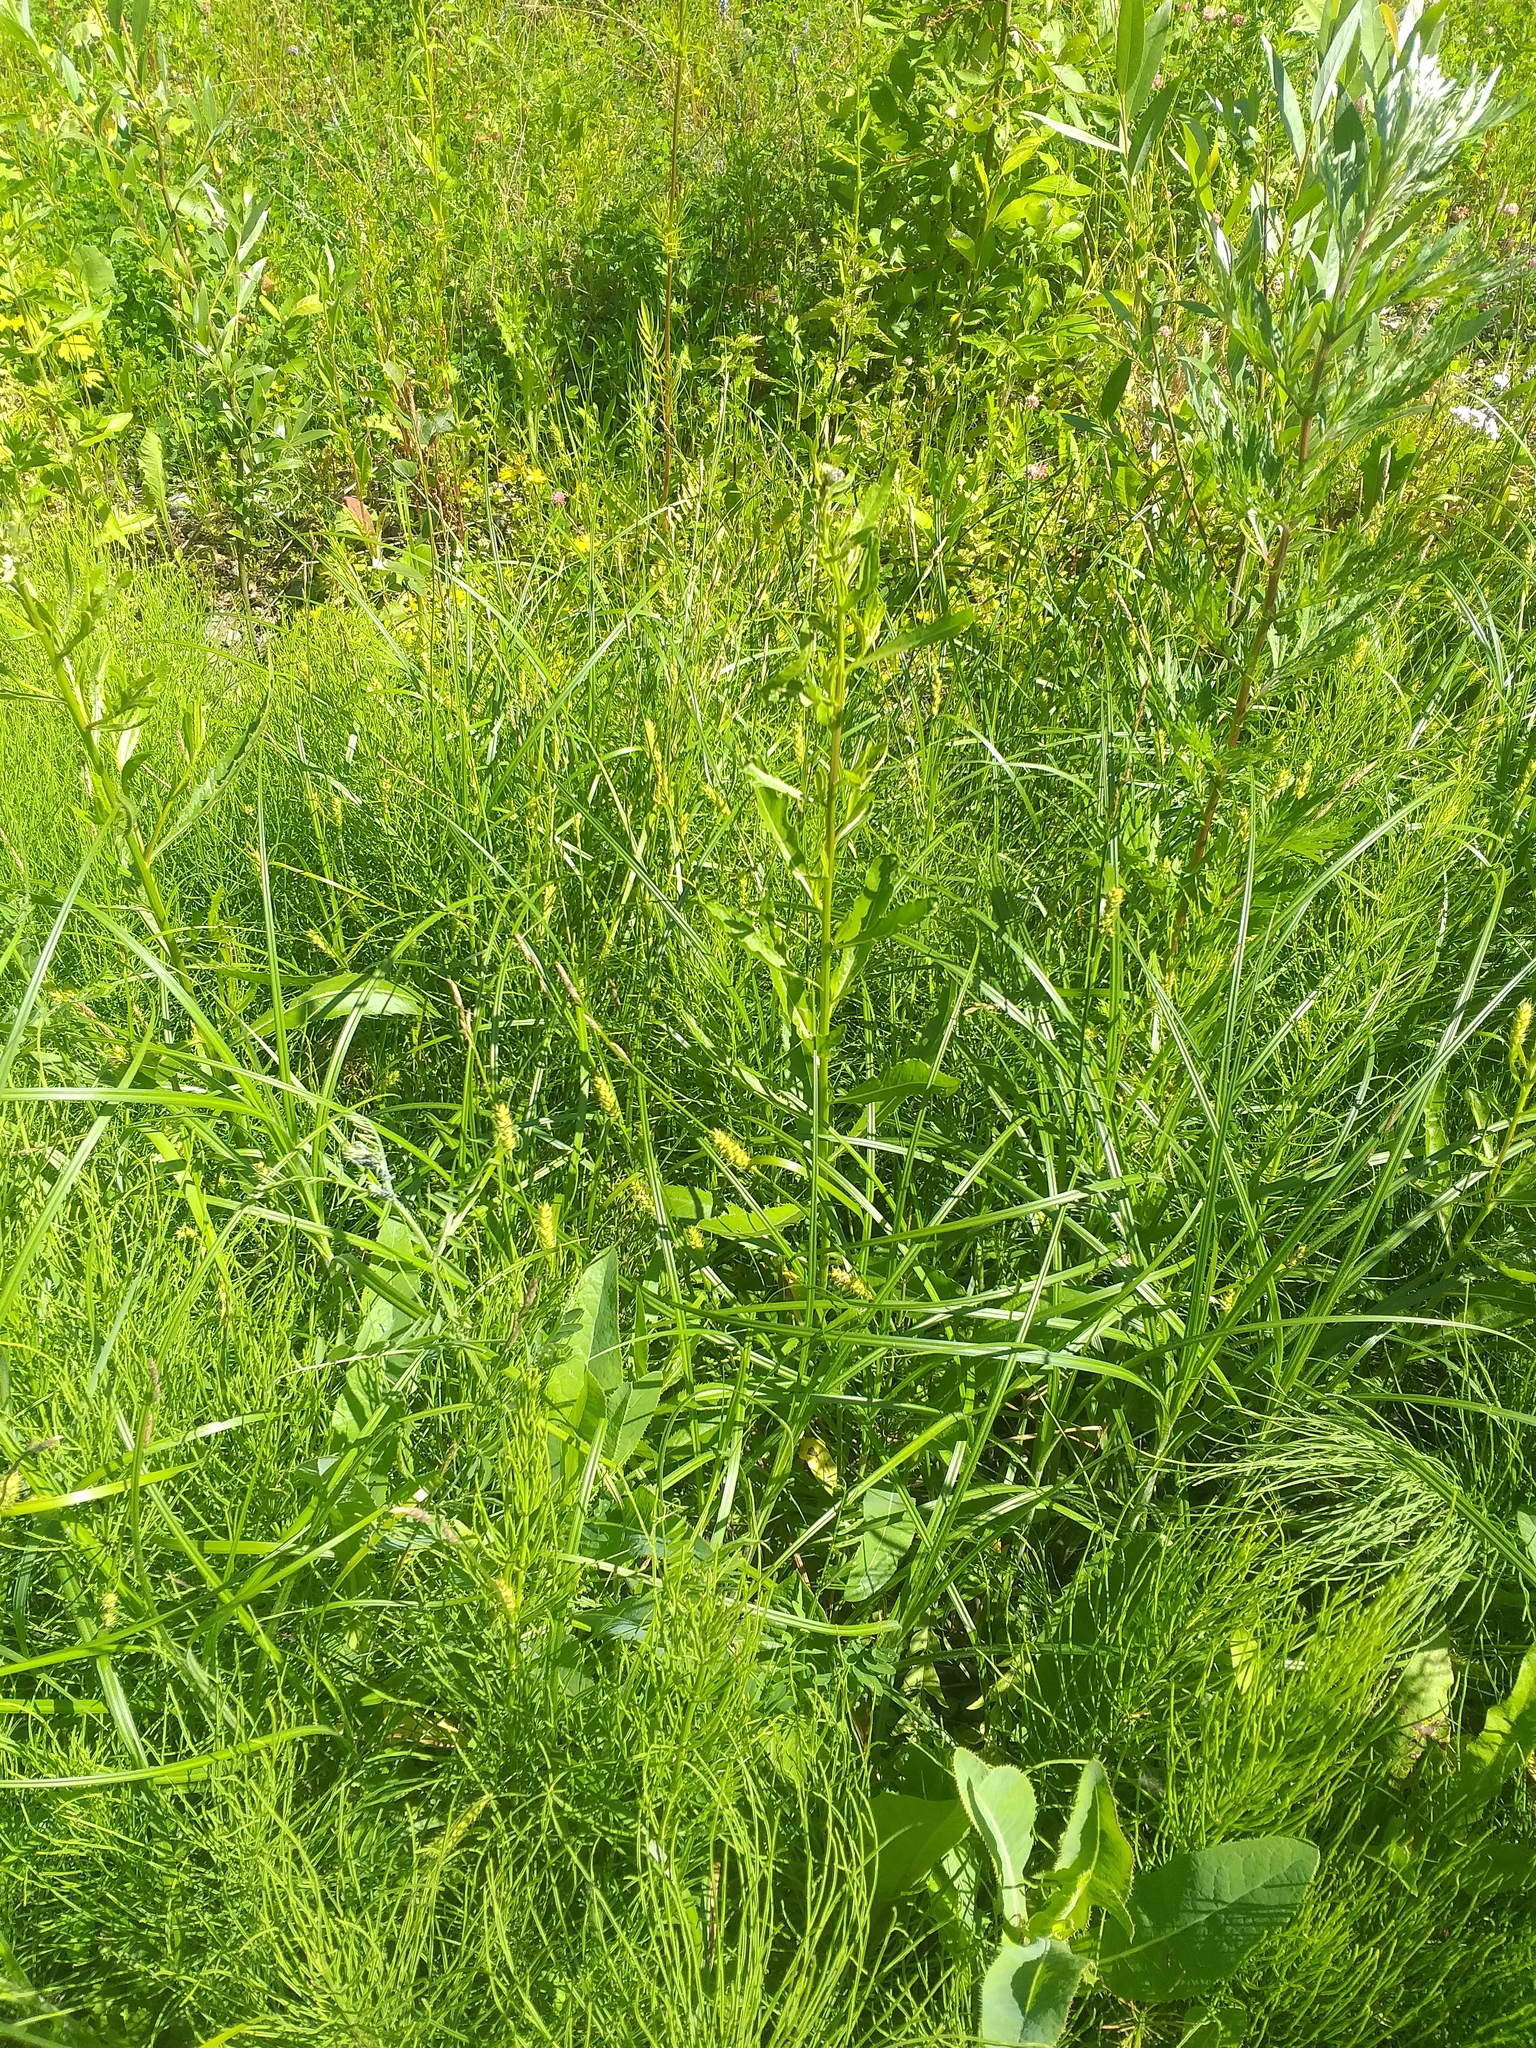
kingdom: Plantae
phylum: Tracheophyta
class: Liliopsida
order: Poales
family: Cyperaceae
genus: Carex
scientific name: Carex hirta
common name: Hairy sedge
